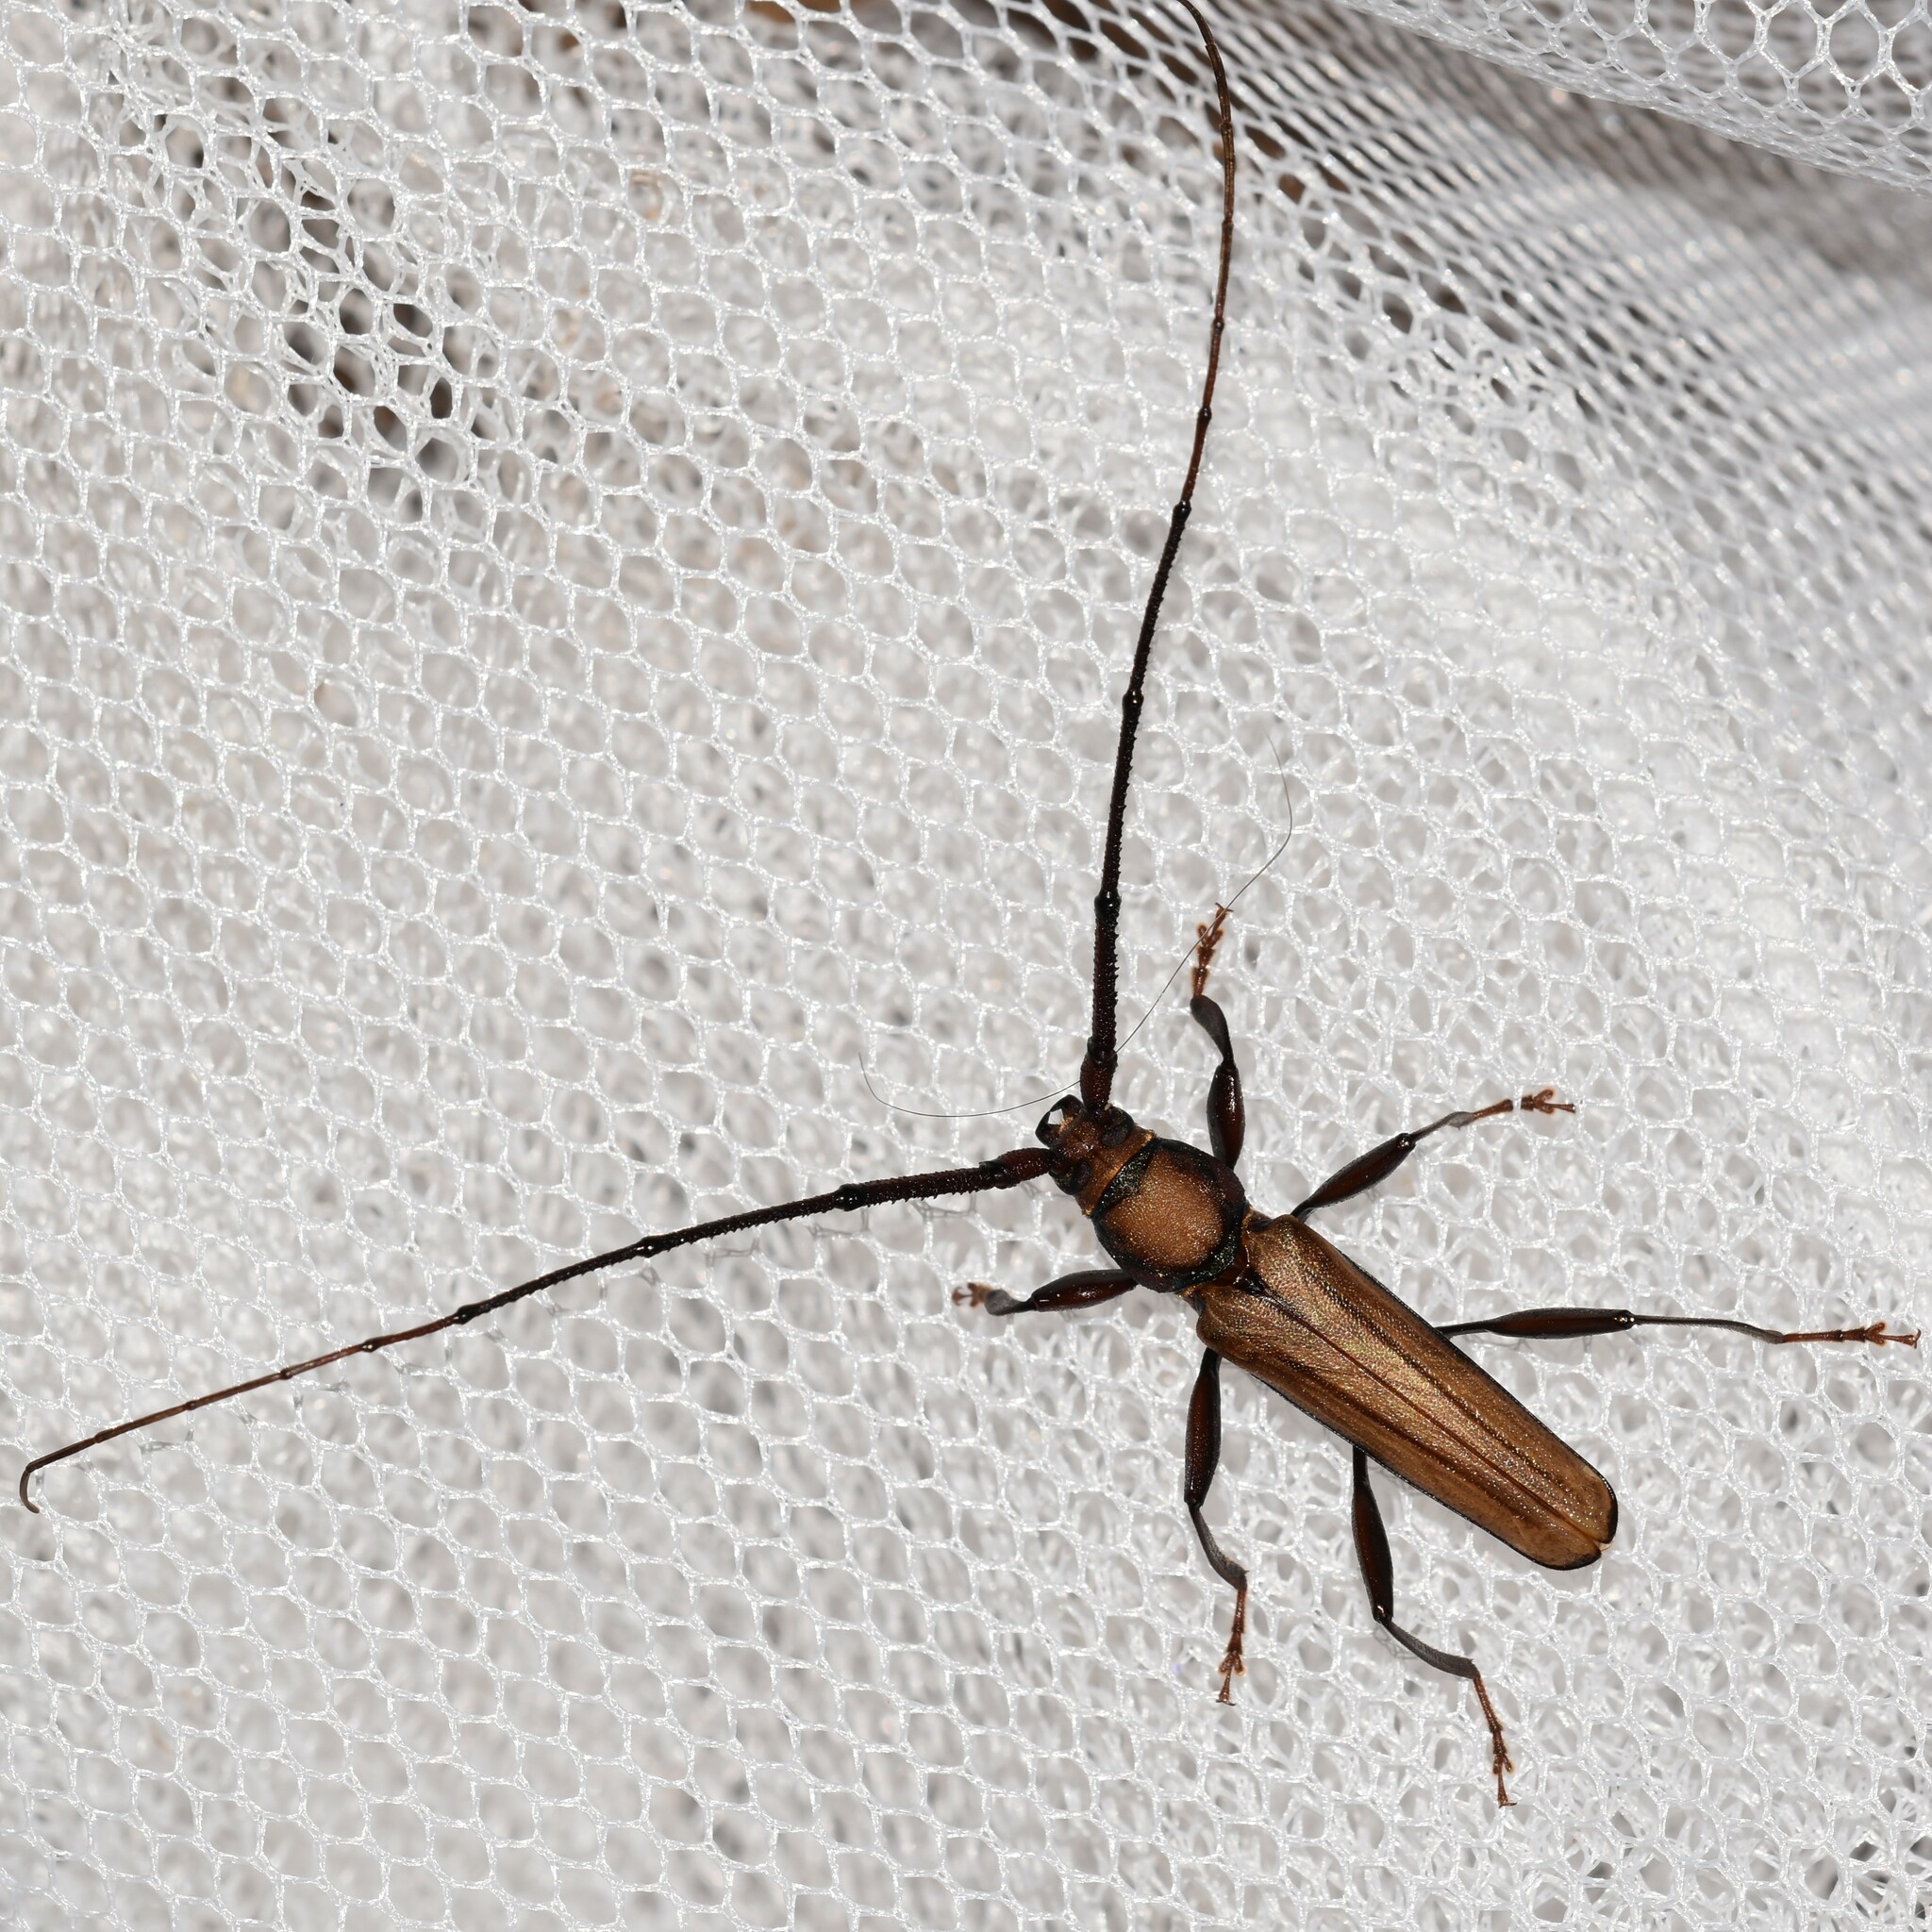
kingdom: Animalia
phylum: Arthropoda
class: Insecta
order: Coleoptera
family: Cerambycidae
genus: Xystrocera
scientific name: Xystrocera globosa
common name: Peach-tree longhorn
